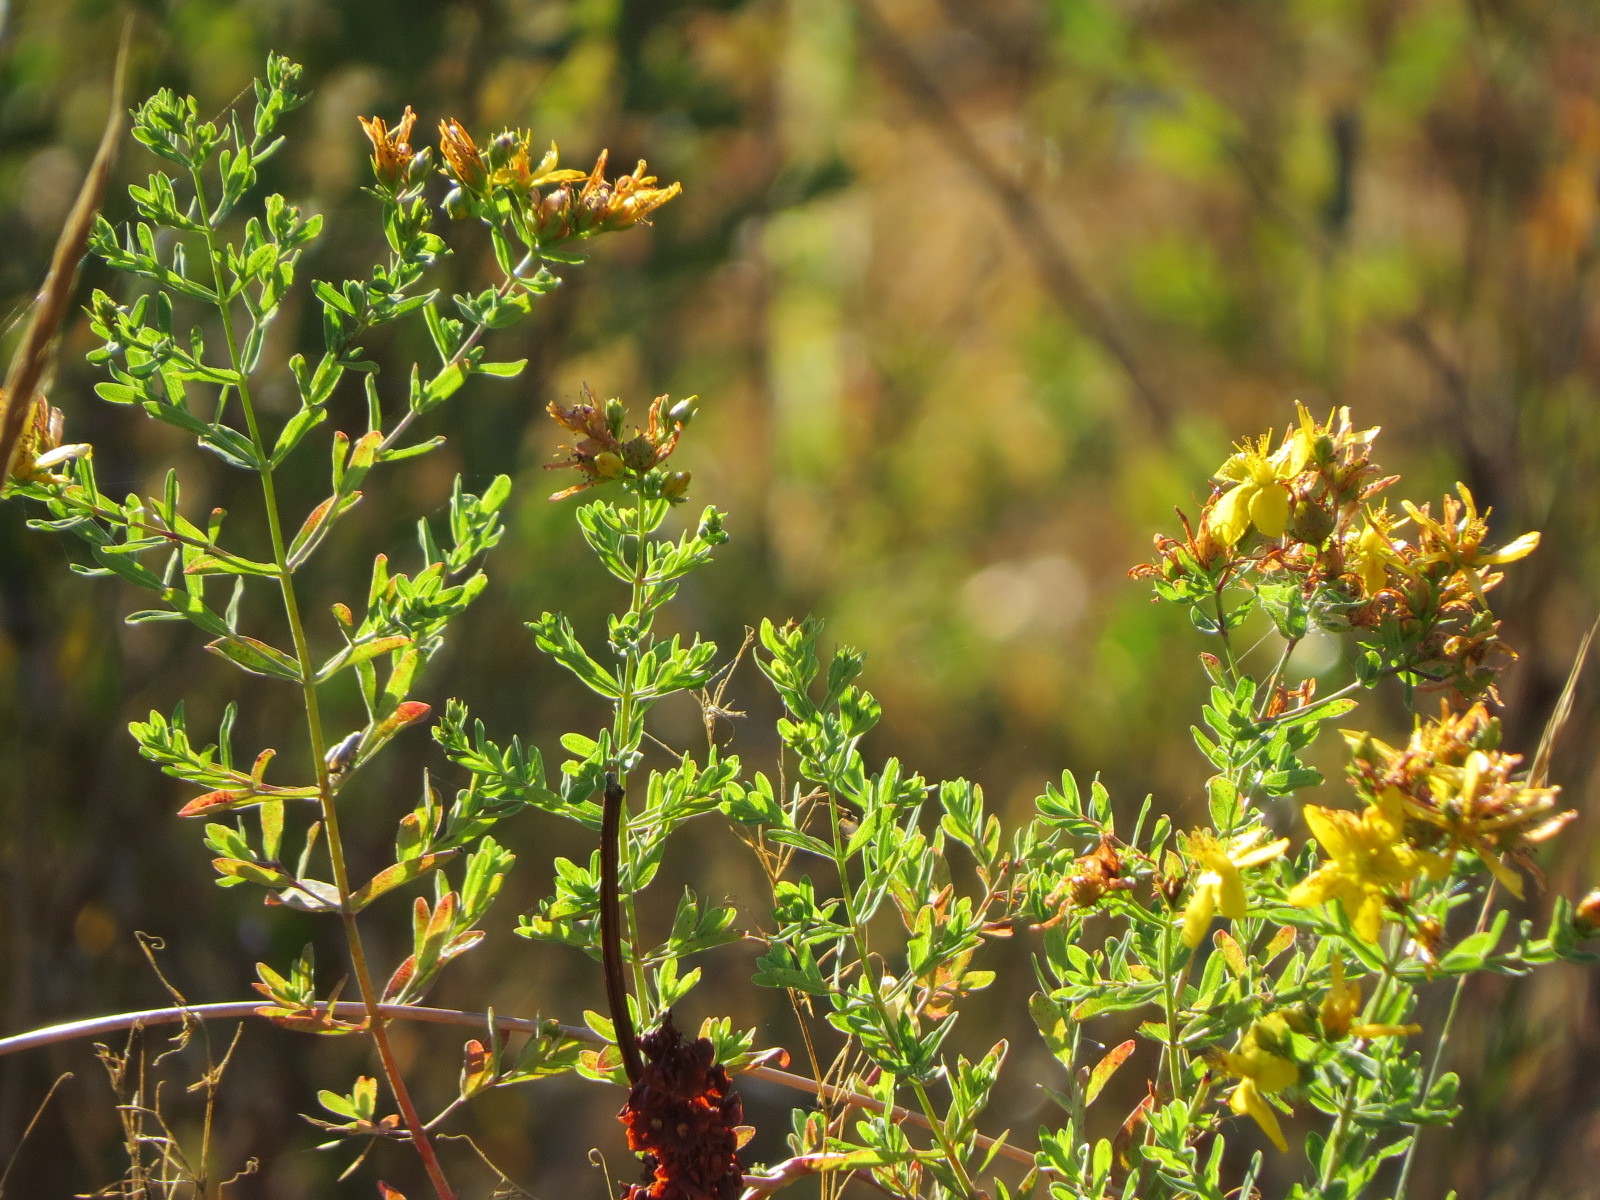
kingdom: Plantae
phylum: Tracheophyta
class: Magnoliopsida
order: Malpighiales
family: Hypericaceae
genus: Hypericum
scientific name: Hypericum perforatum
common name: Common st. johnswort
